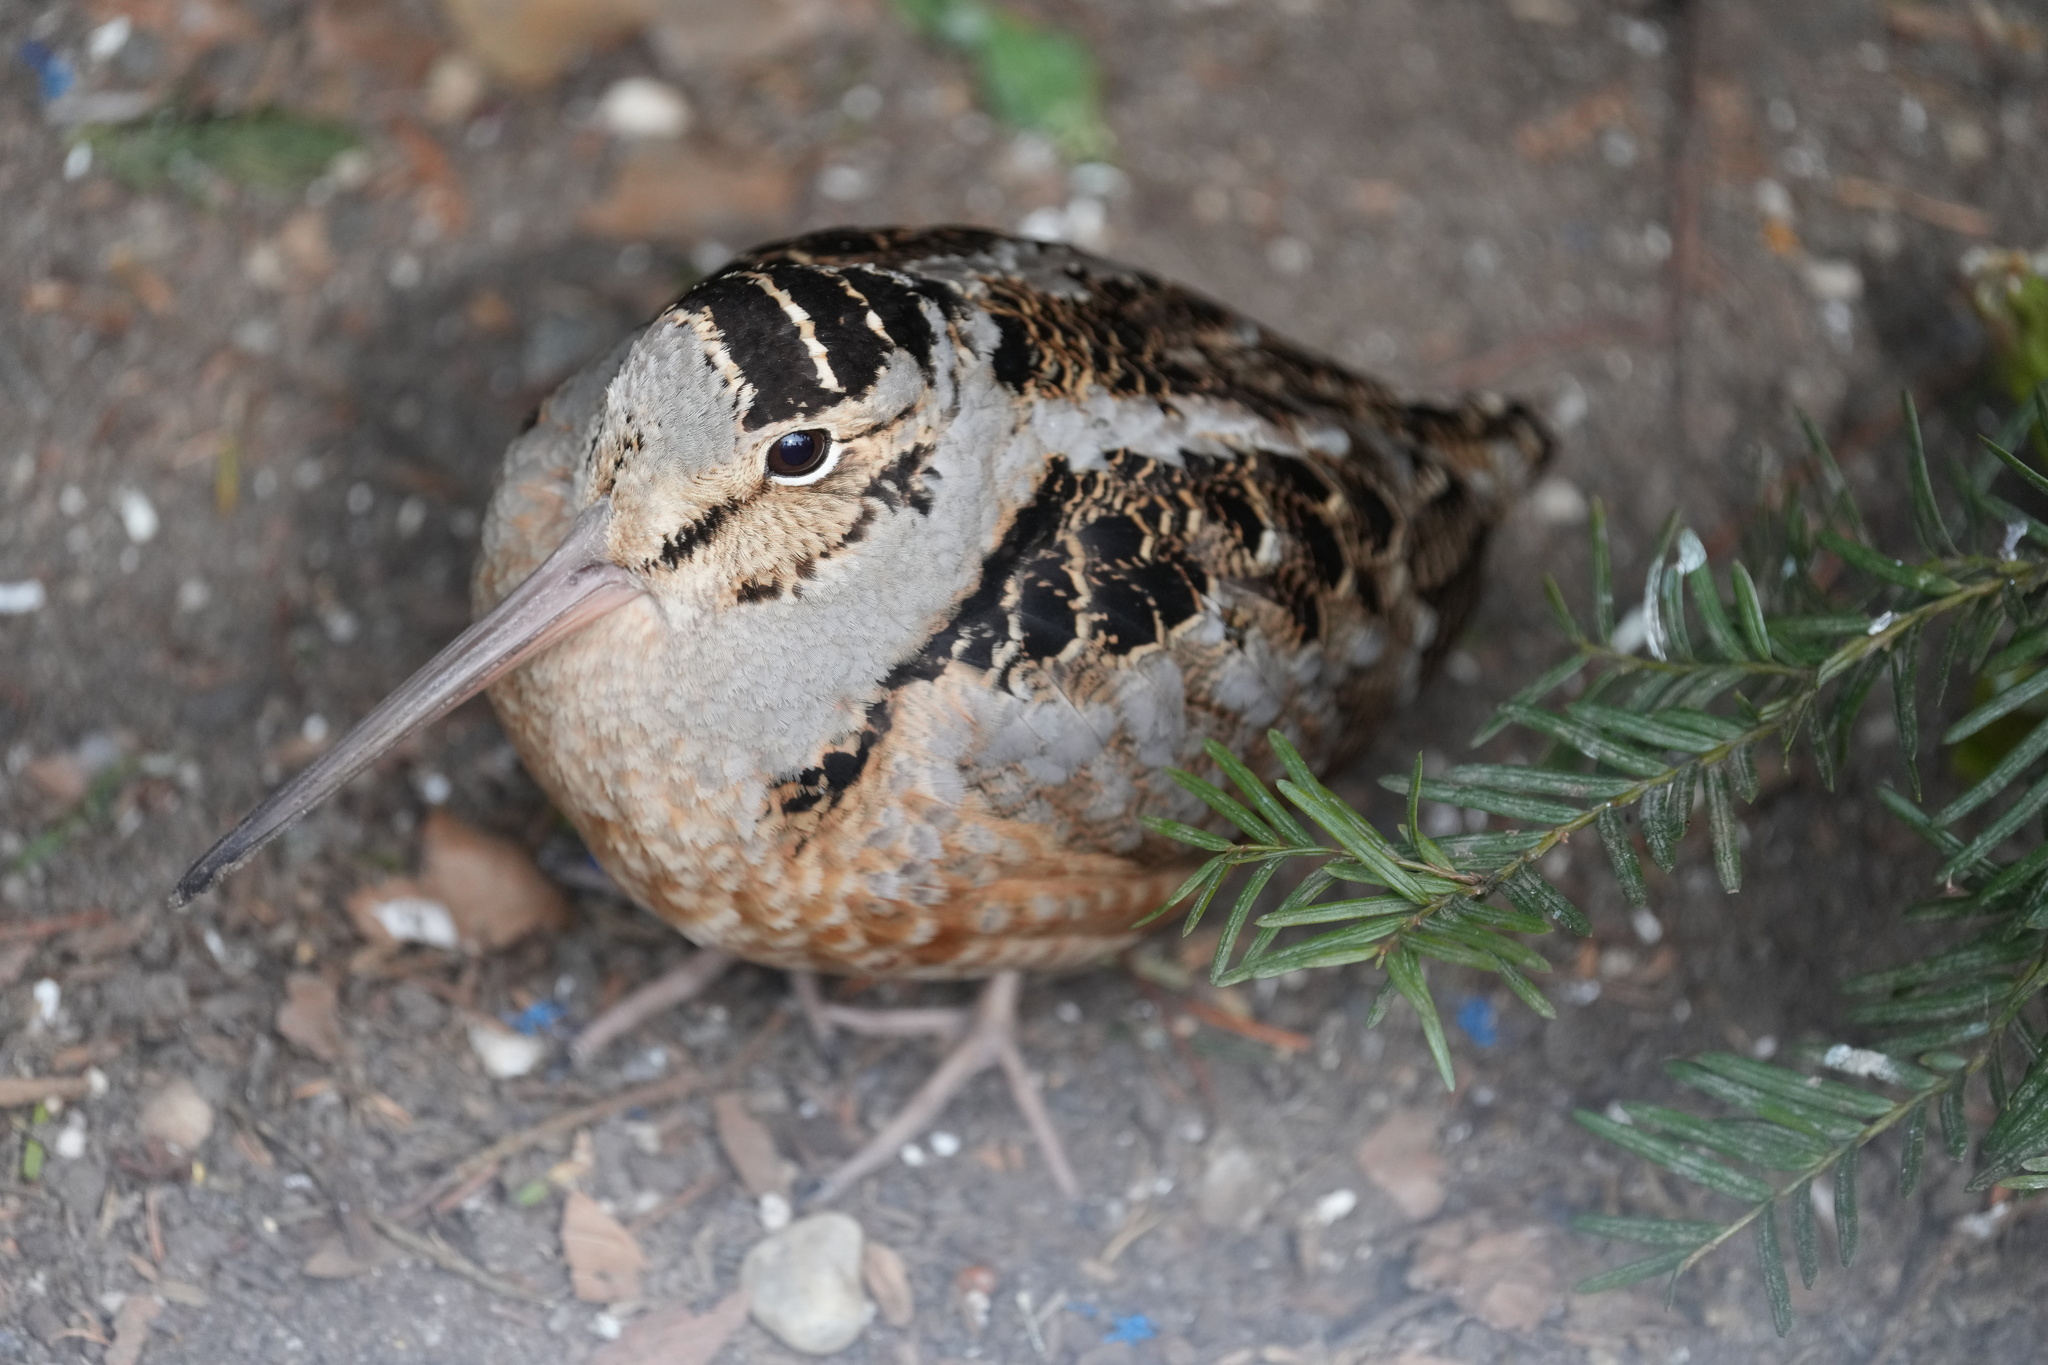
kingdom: Animalia
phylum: Chordata
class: Aves
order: Charadriiformes
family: Scolopacidae
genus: Scolopax
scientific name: Scolopax minor
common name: American woodcock
